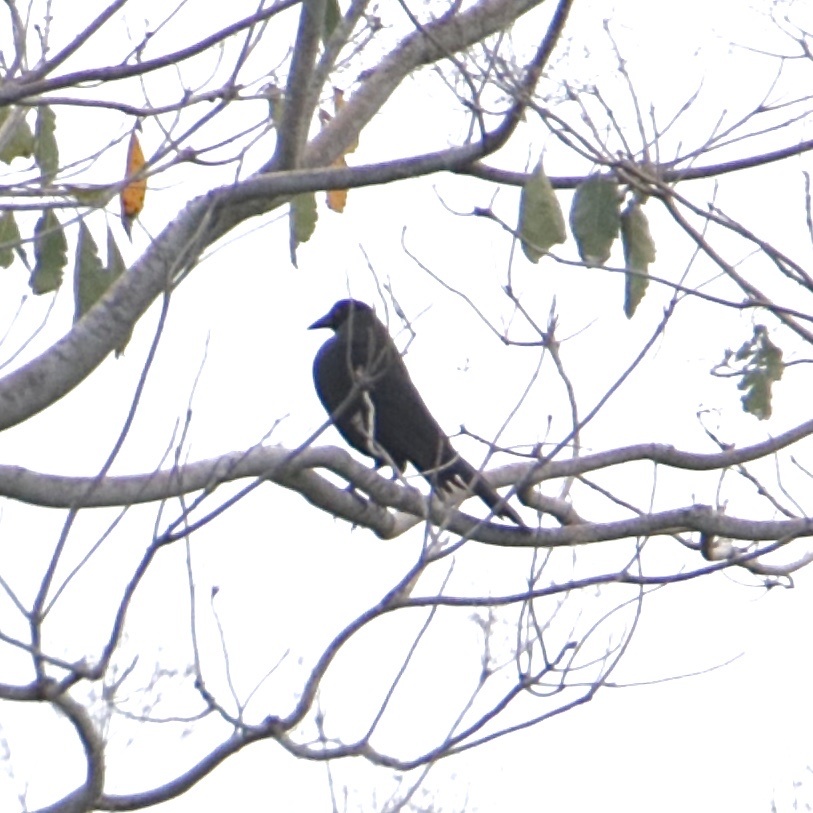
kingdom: Animalia
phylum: Chordata
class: Aves
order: Passeriformes
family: Icteridae
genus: Molothrus
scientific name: Molothrus oryzivorus
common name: Giant cowbird
